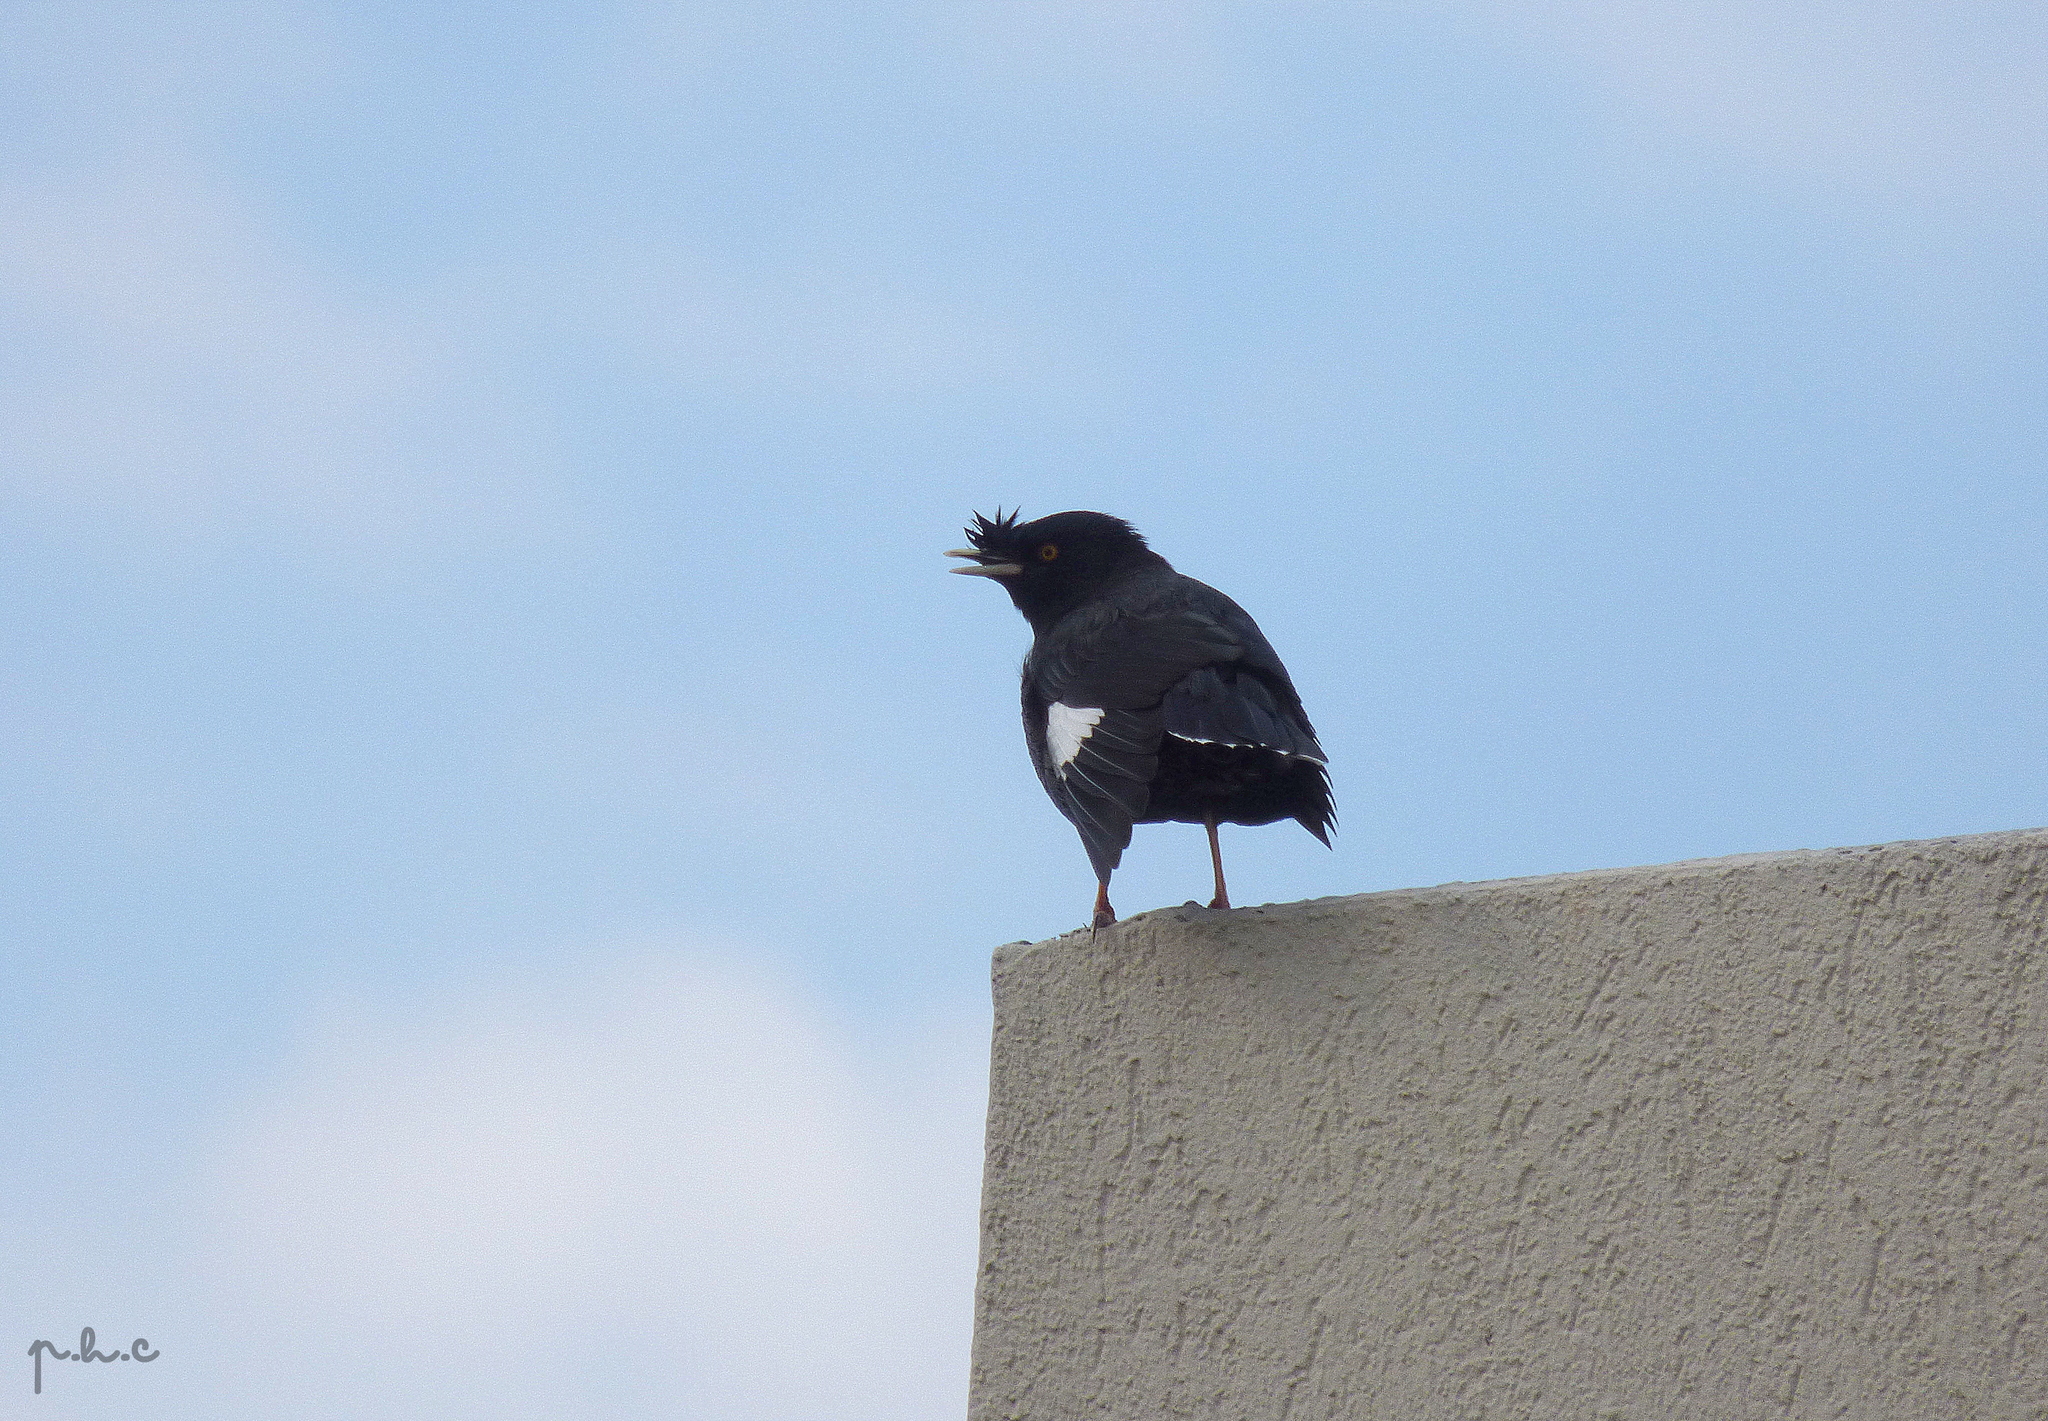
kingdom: Animalia
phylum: Chordata
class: Aves
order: Passeriformes
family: Sturnidae
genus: Acridotheres
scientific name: Acridotheres cristatellus
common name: Crested myna
